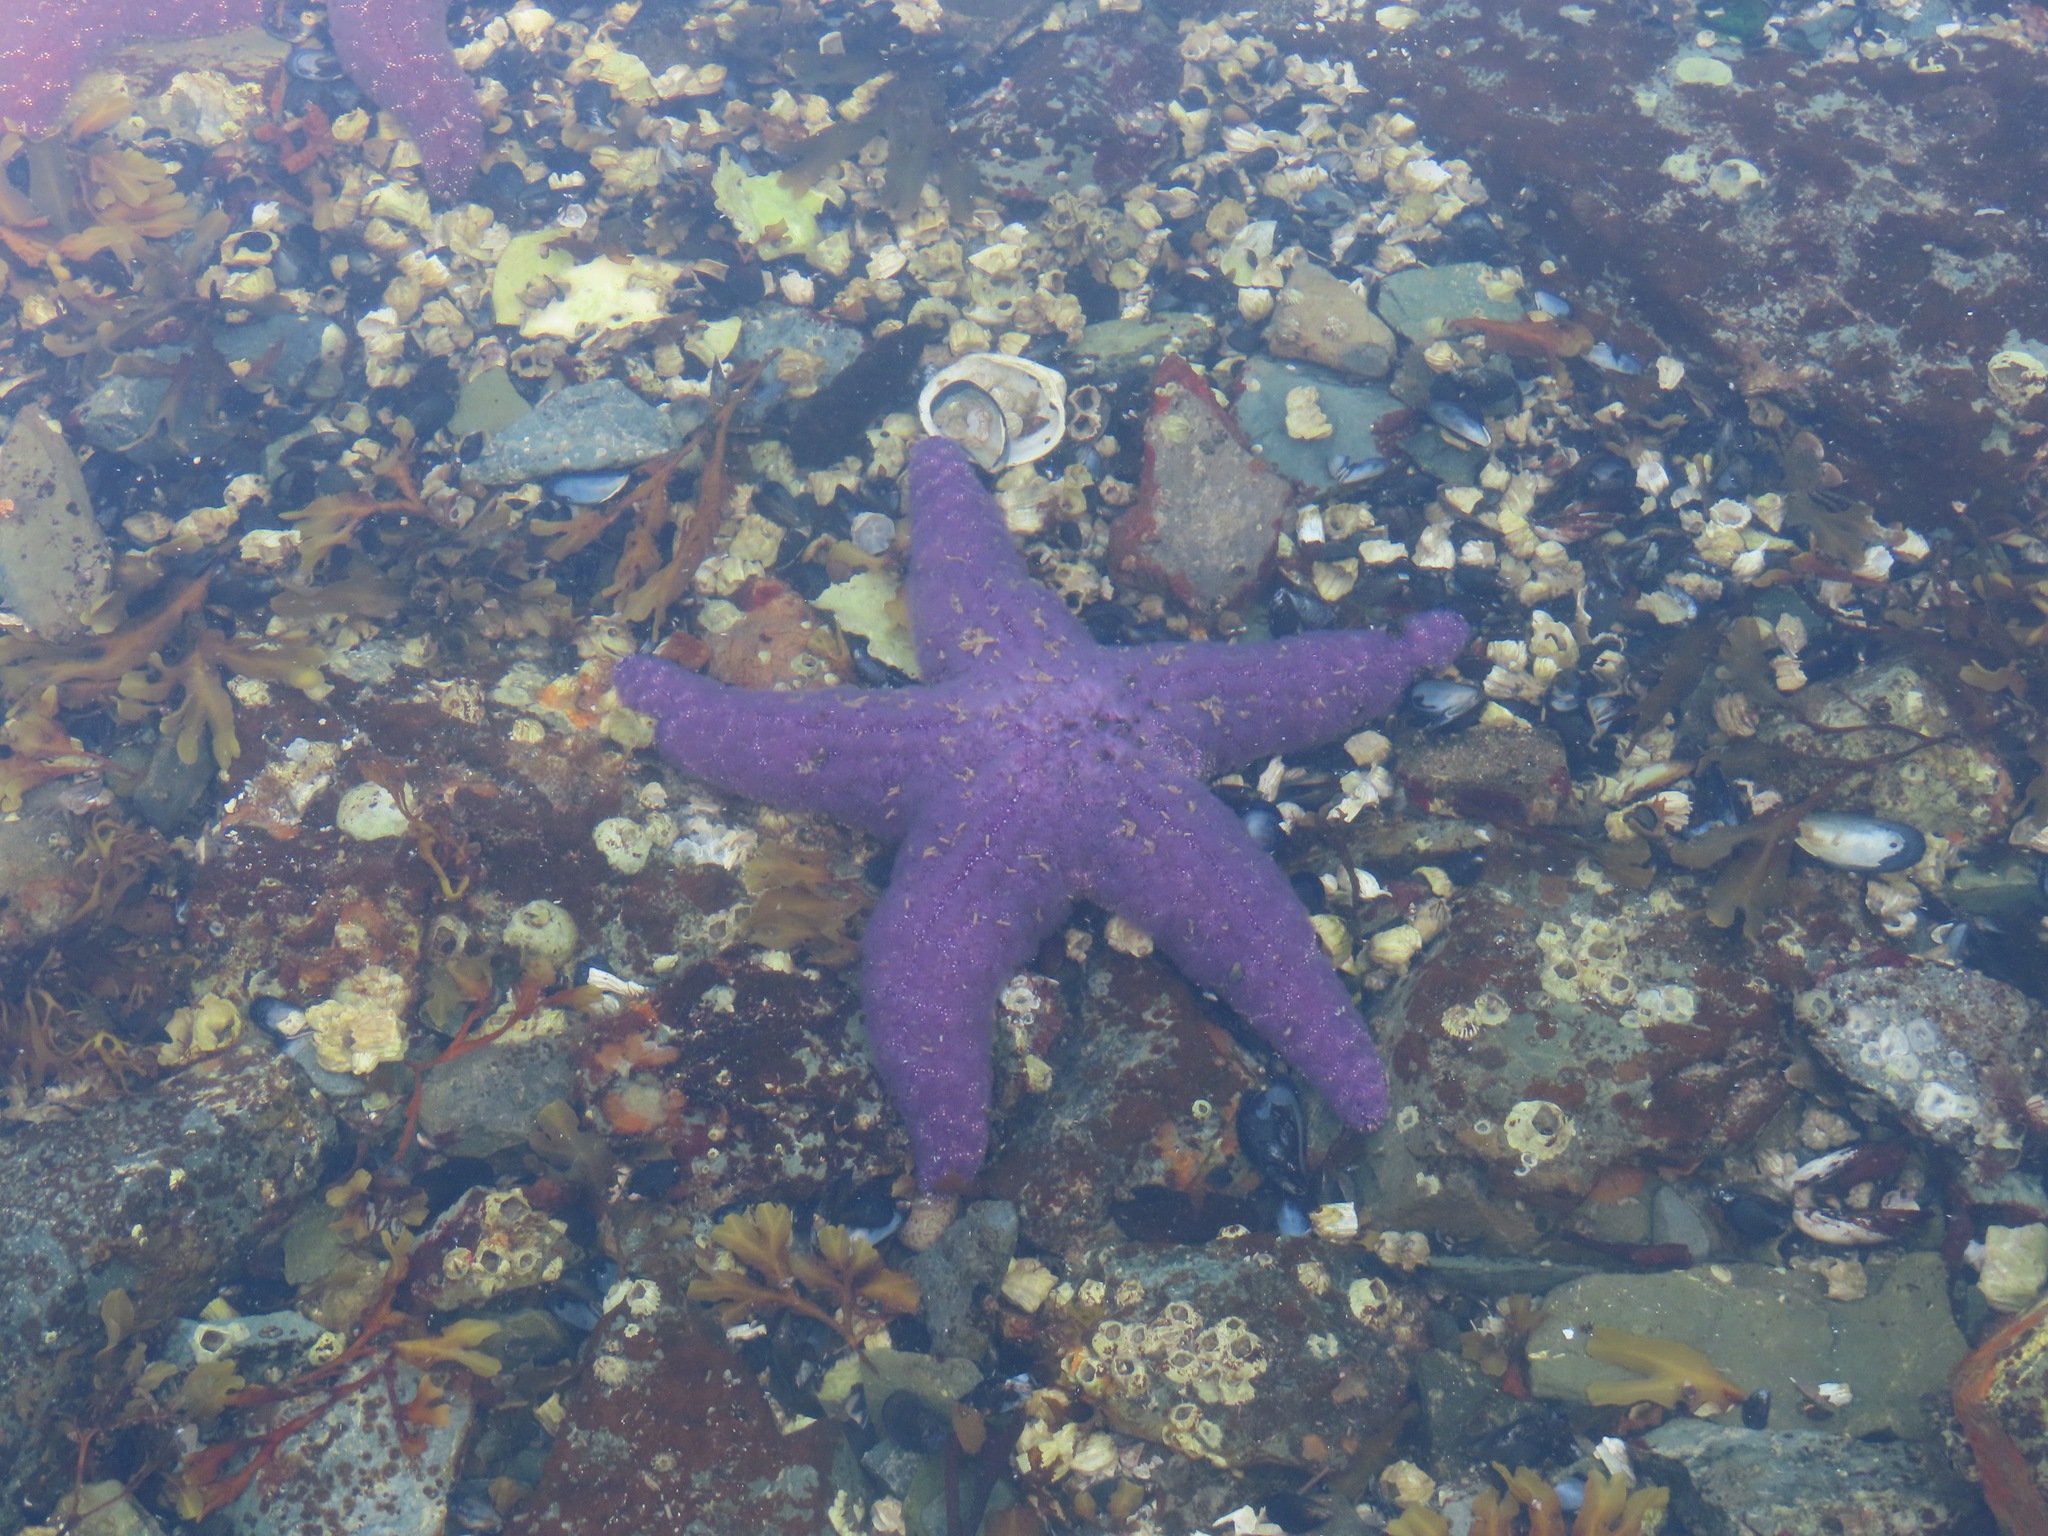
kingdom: Animalia
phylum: Echinodermata
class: Asteroidea
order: Forcipulatida
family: Asteriidae
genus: Pisaster
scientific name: Pisaster ochraceus
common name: Ochre stars
